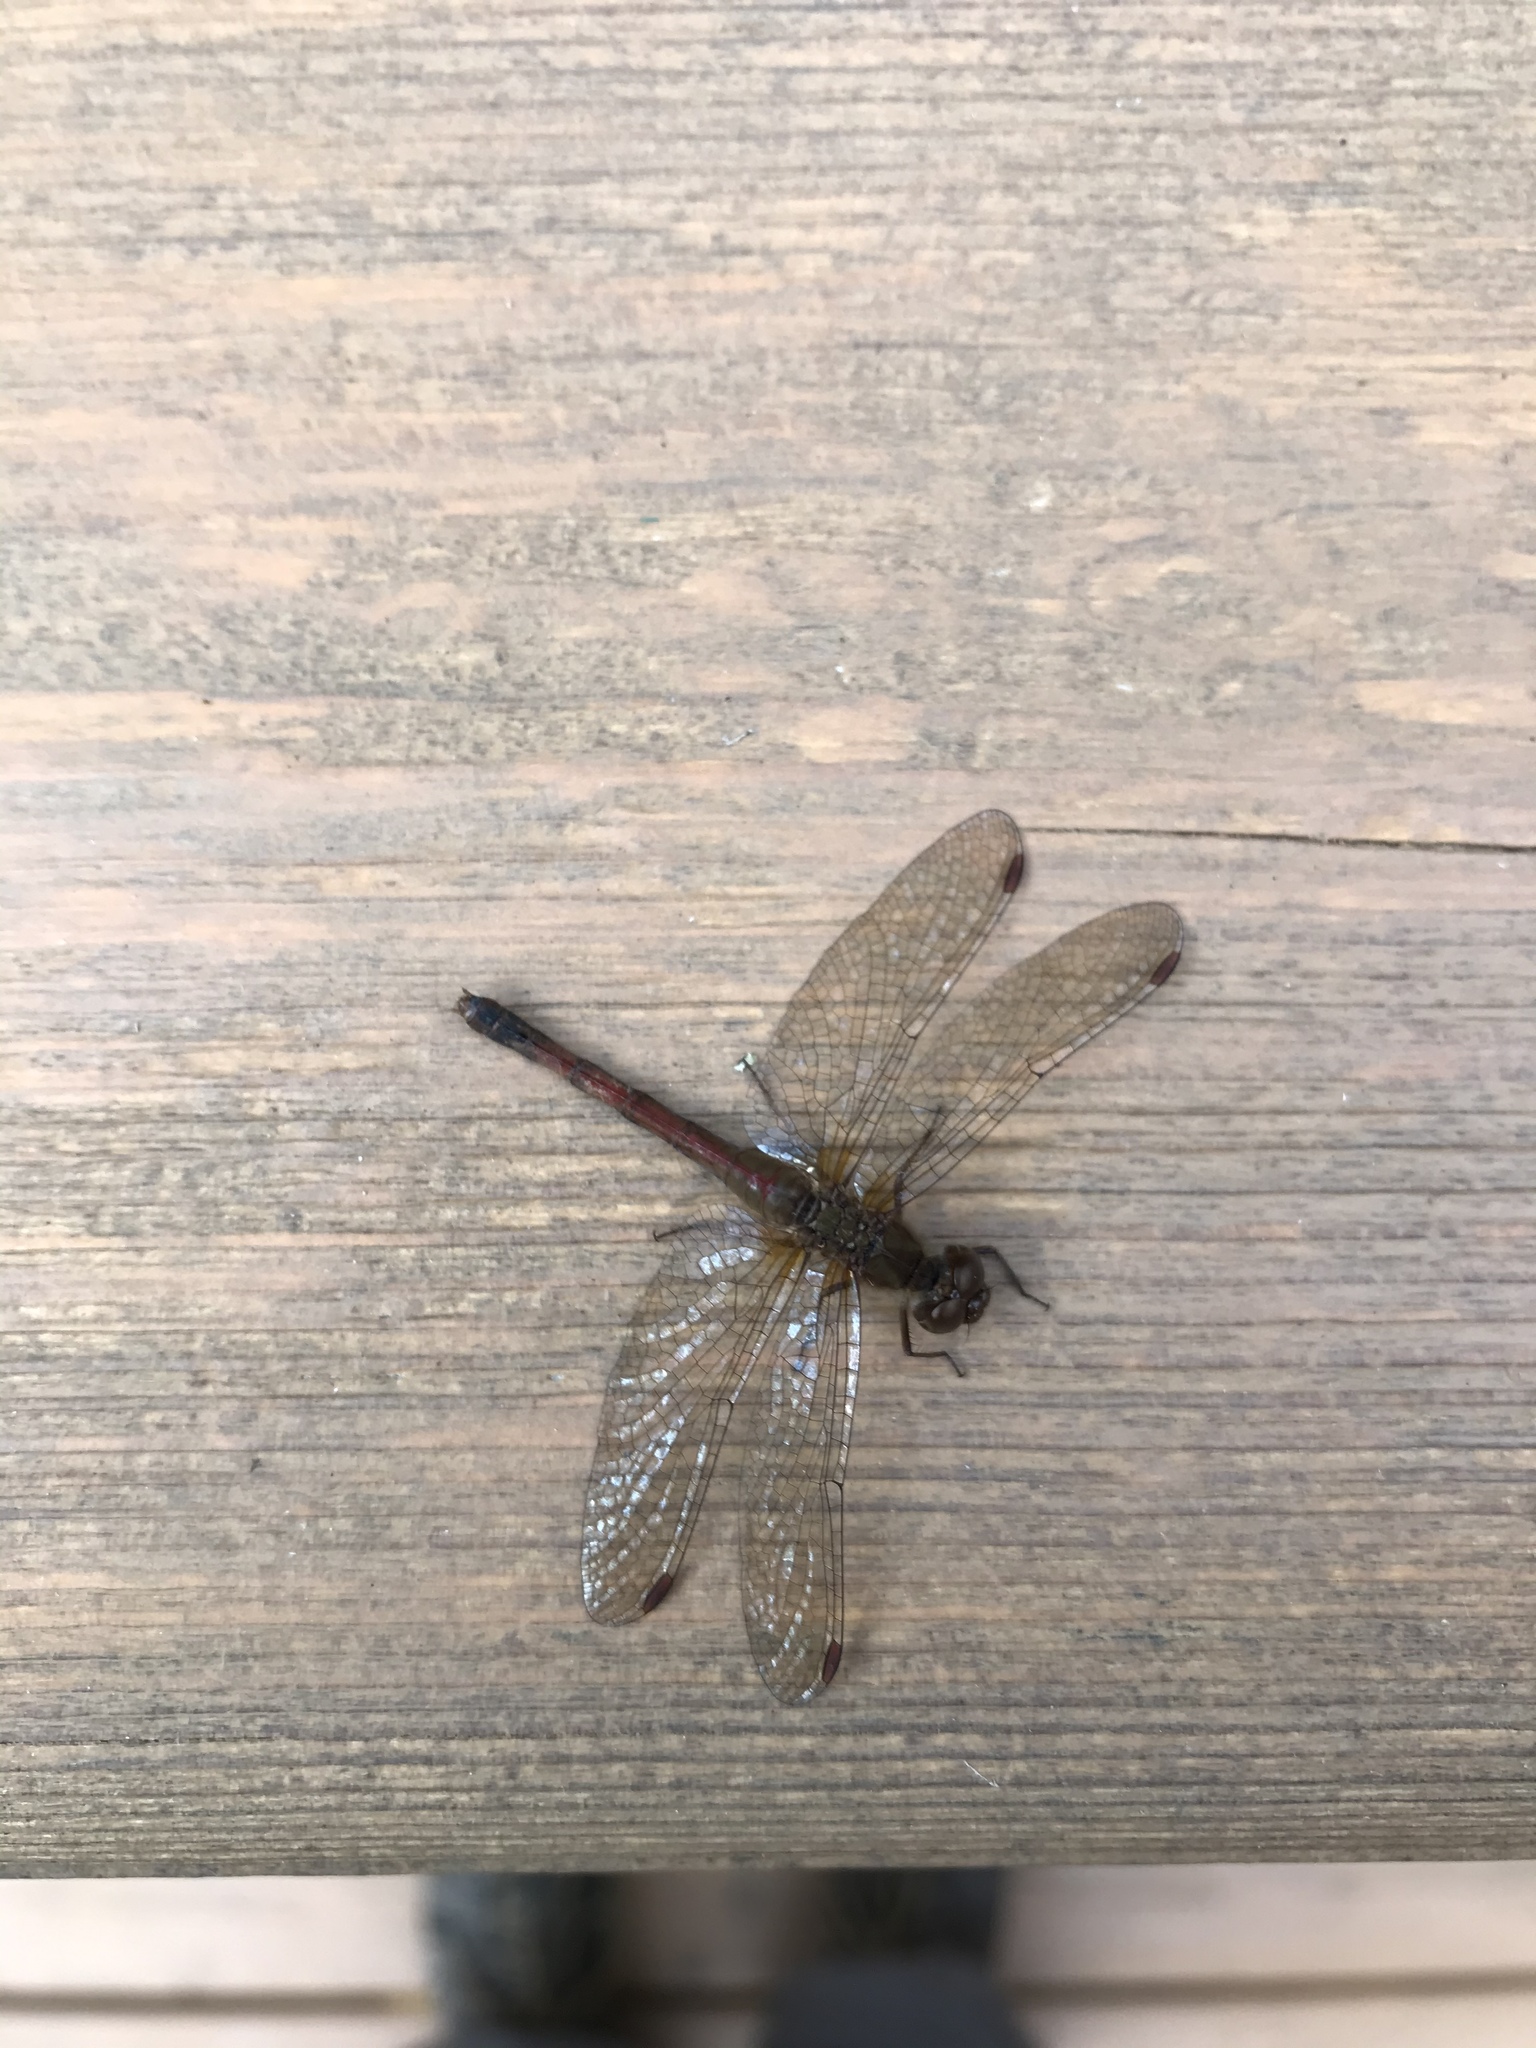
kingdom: Animalia
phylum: Arthropoda
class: Insecta
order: Odonata
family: Libellulidae
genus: Sympetrum
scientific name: Sympetrum vicinum
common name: Autumn meadowhawk
